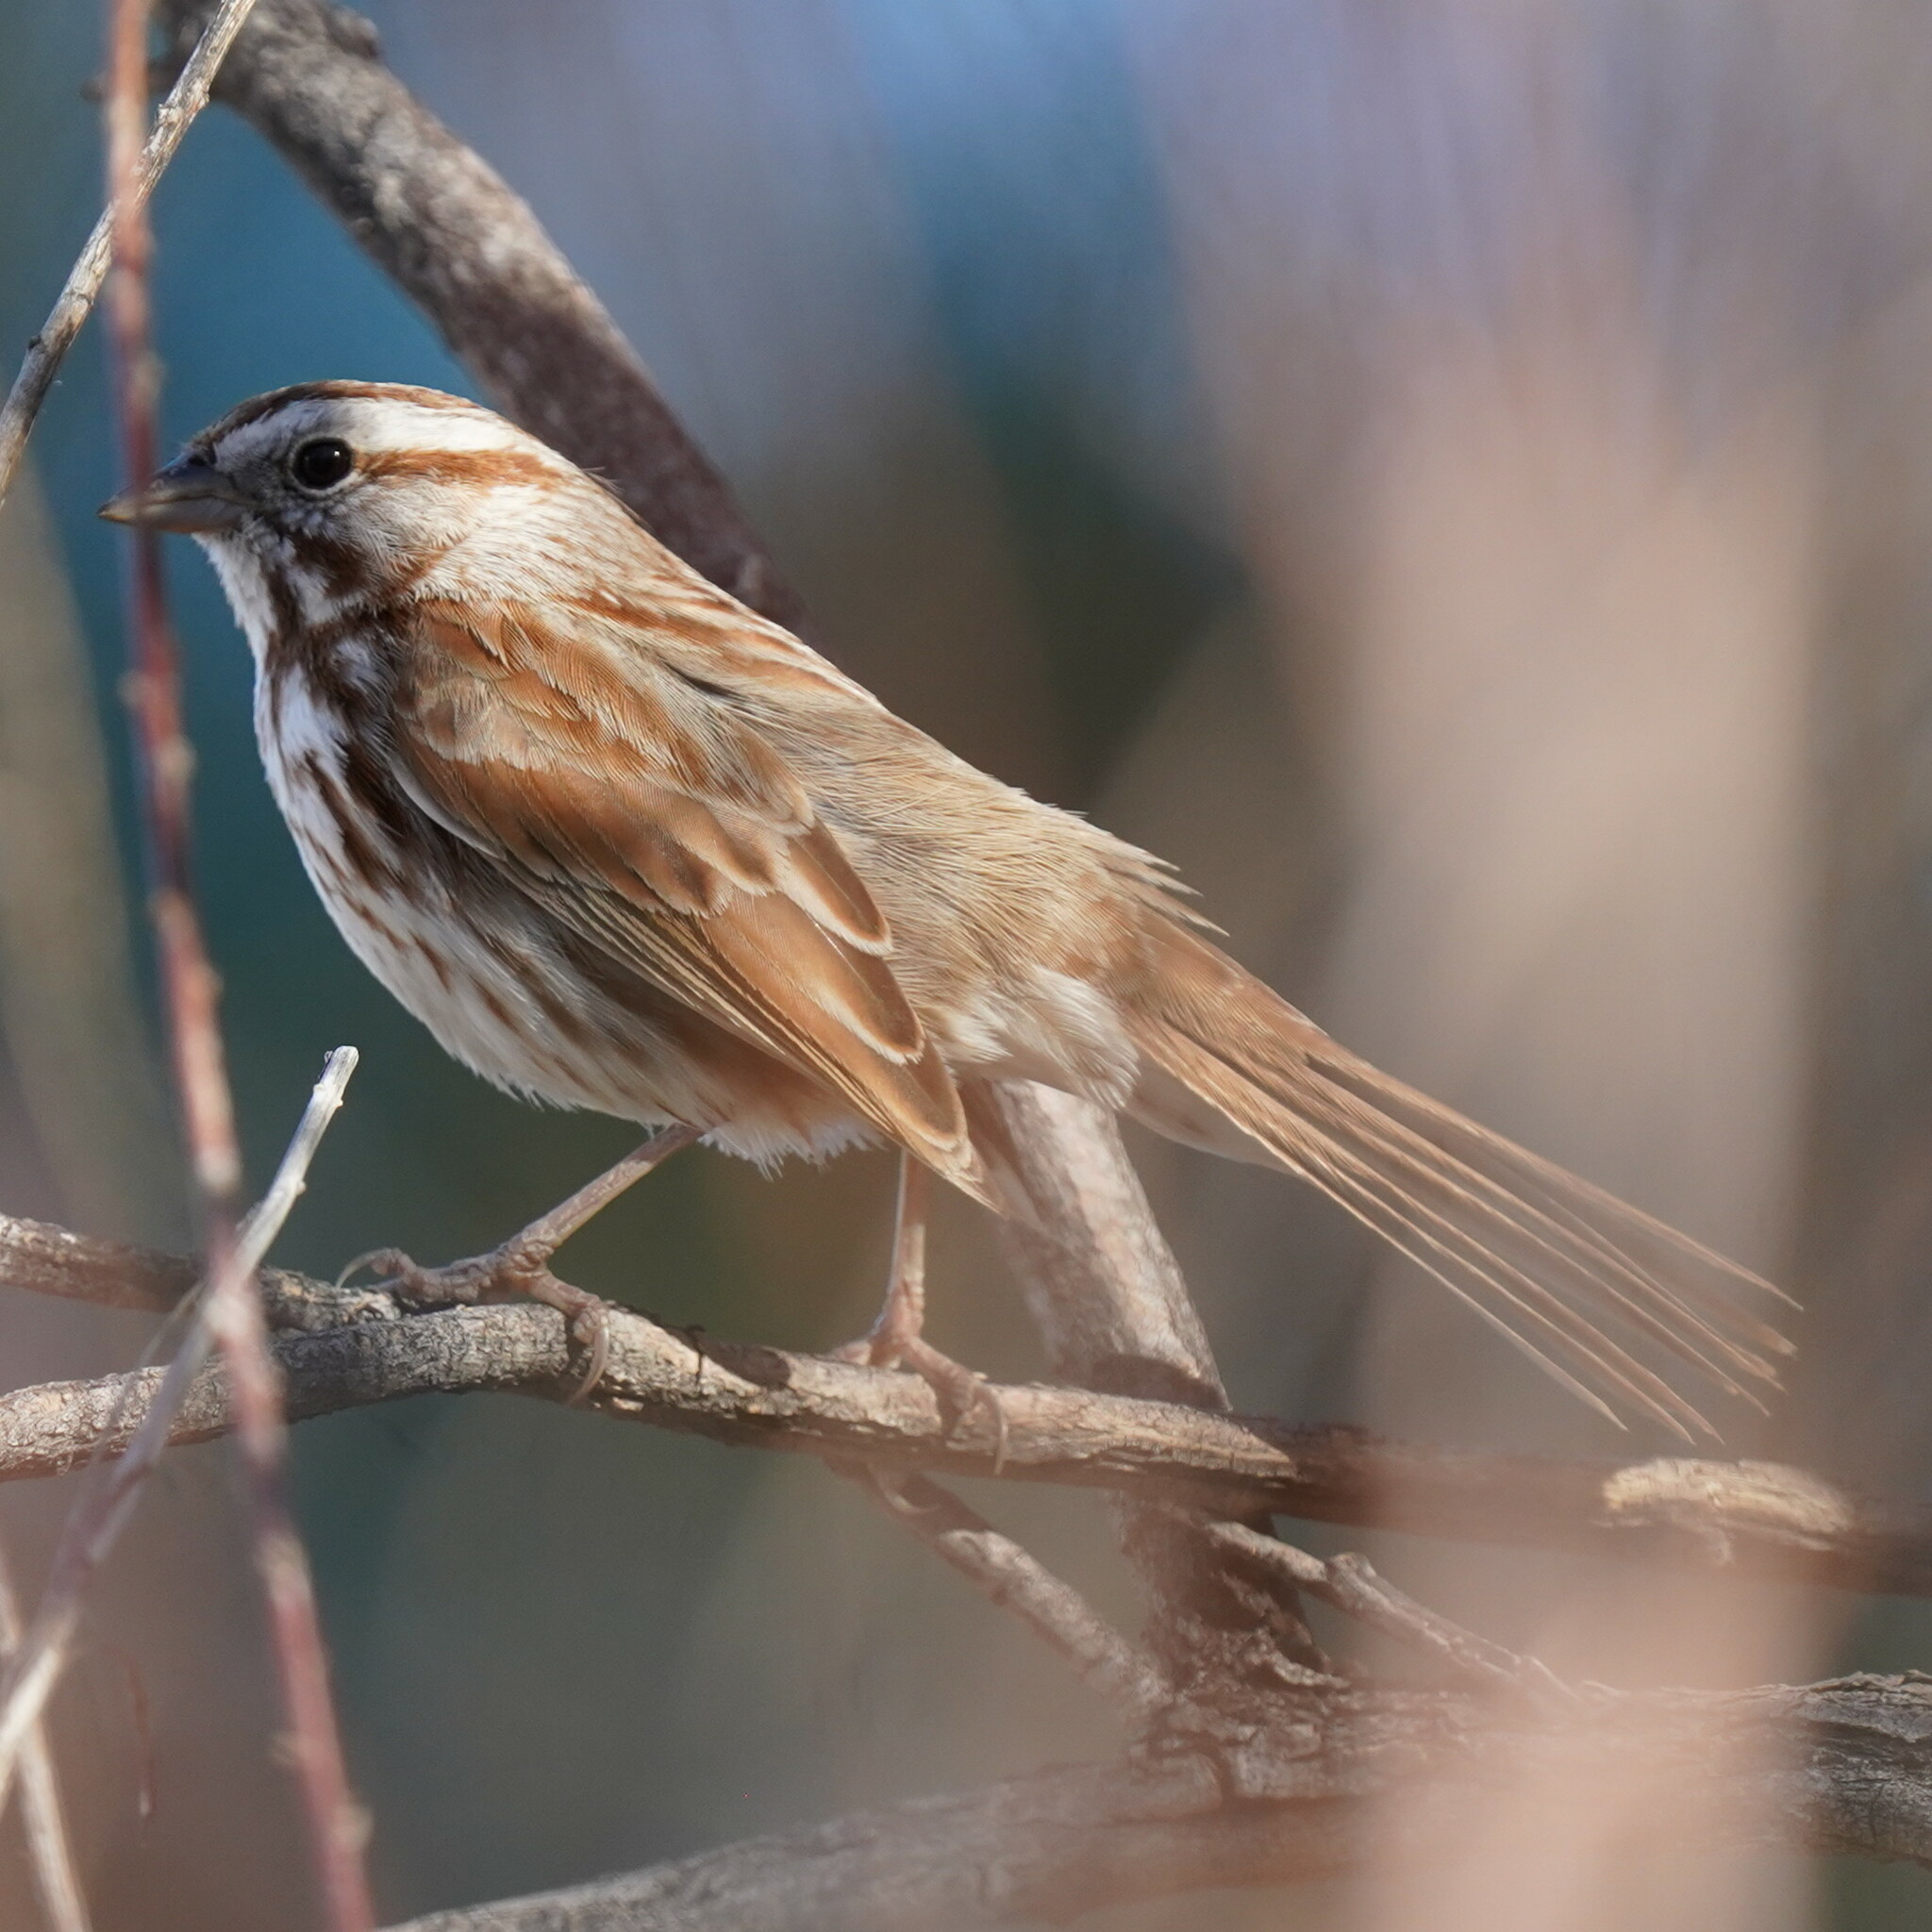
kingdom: Animalia
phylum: Chordata
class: Aves
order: Passeriformes
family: Passerellidae
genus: Melospiza
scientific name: Melospiza melodia
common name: Song sparrow
